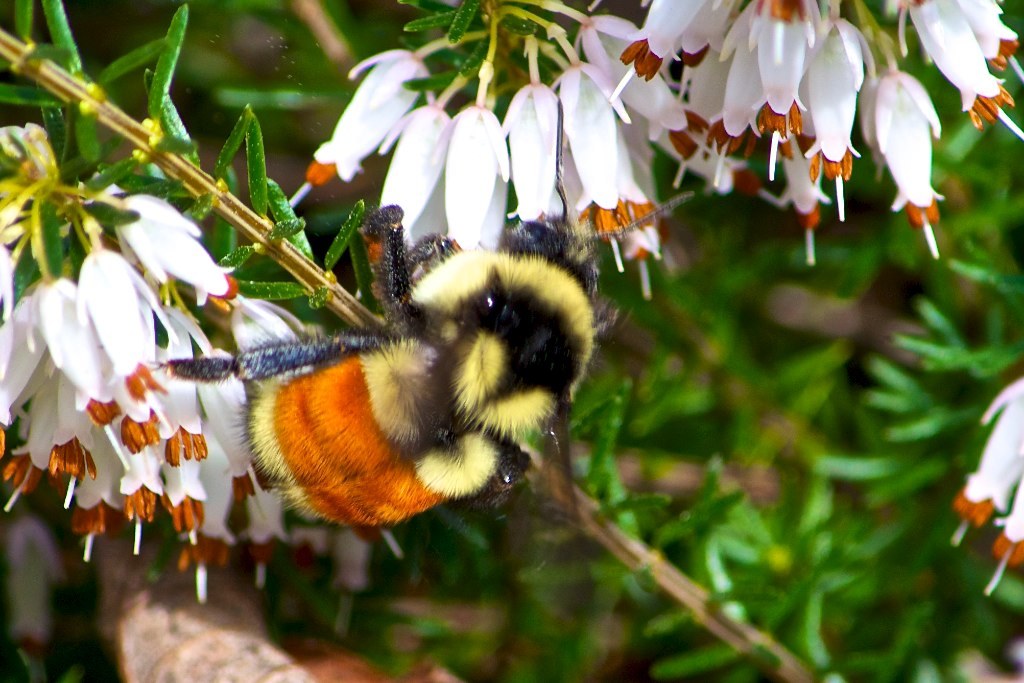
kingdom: Animalia
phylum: Arthropoda
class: Insecta
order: Hymenoptera
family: Apidae
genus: Bombus
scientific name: Bombus ternarius
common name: Tri-colored bumble bee
